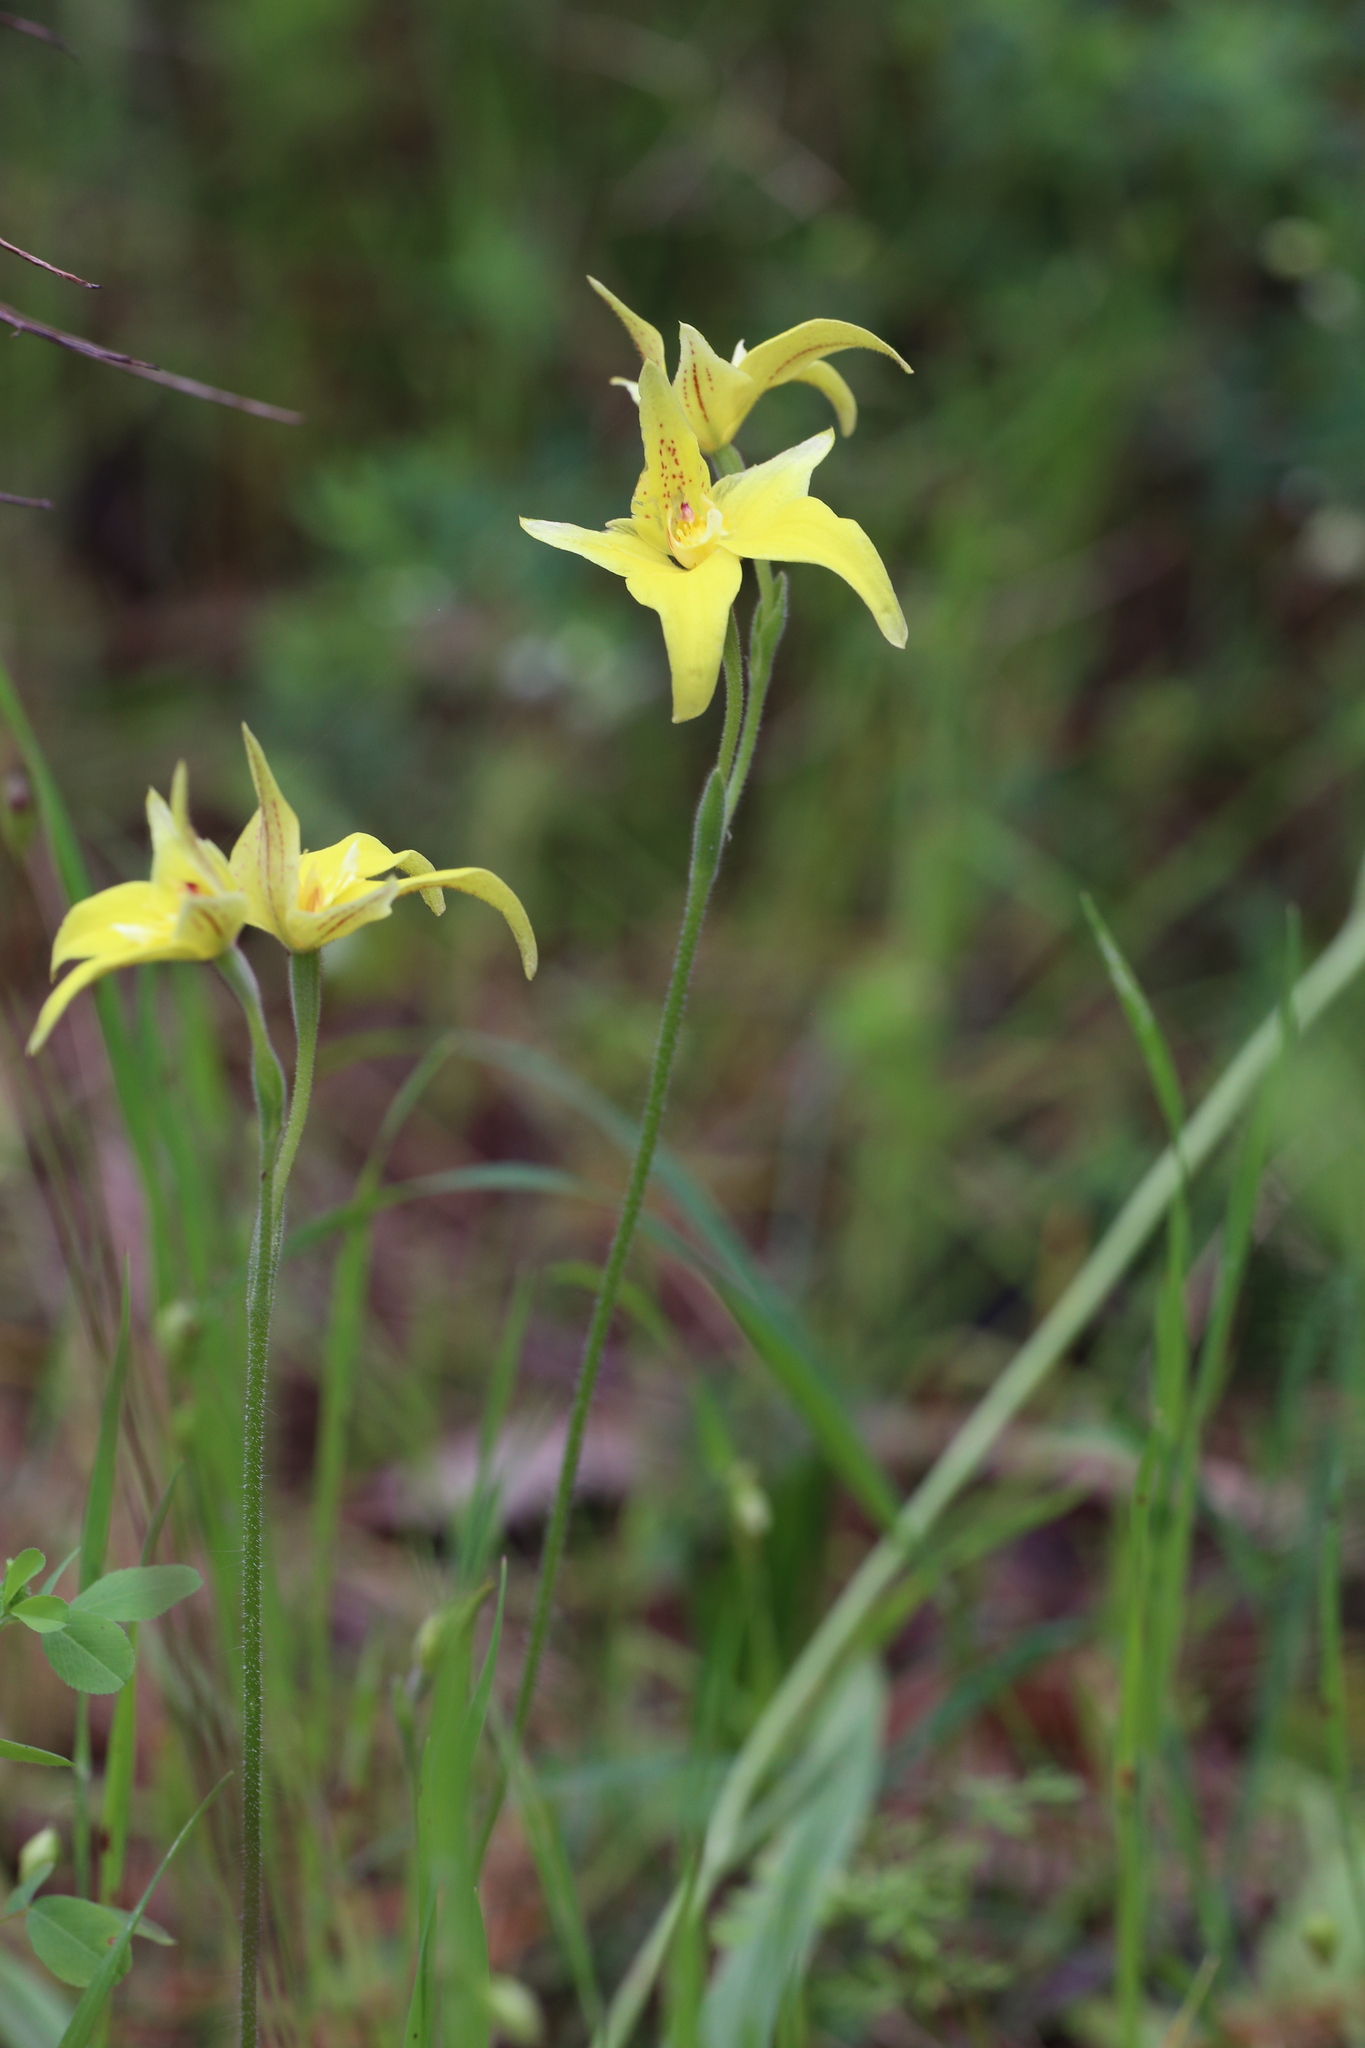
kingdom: Plantae
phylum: Tracheophyta
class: Liliopsida
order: Asparagales
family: Orchidaceae
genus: Caladenia
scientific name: Caladenia flava
